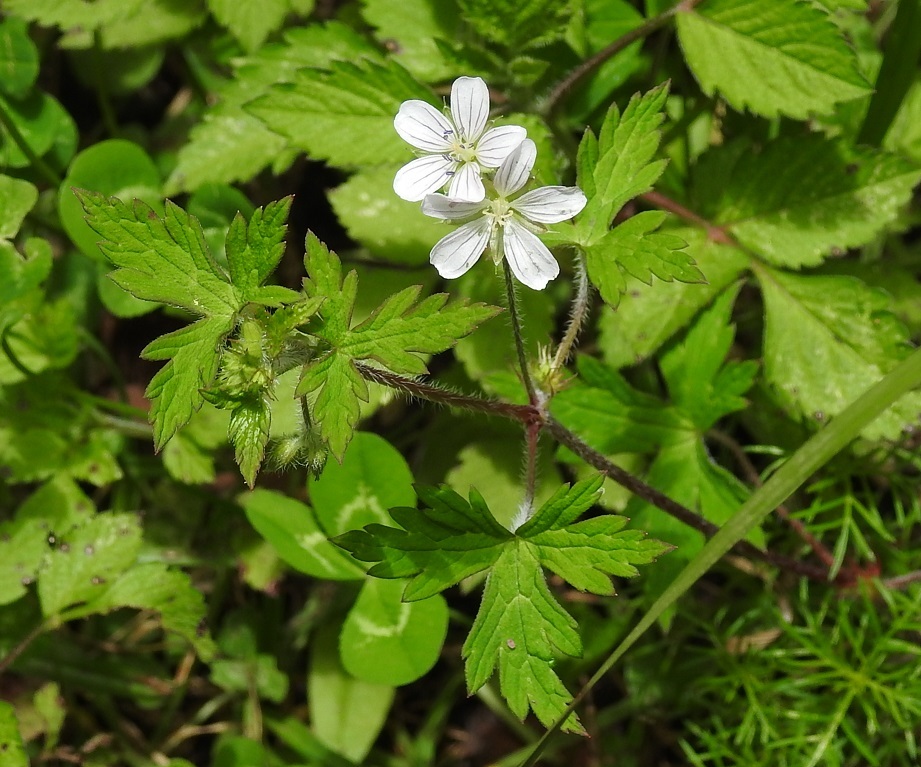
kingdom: Plantae
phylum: Tracheophyta
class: Magnoliopsida
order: Geraniales
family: Geraniaceae
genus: Geranium
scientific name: Geranium seemannii
